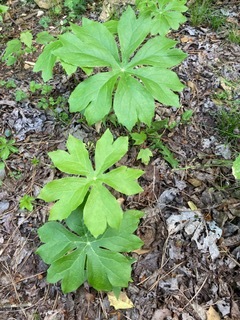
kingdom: Plantae
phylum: Tracheophyta
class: Magnoliopsida
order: Ranunculales
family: Berberidaceae
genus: Podophyllum
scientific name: Podophyllum peltatum
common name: Wild mandrake
